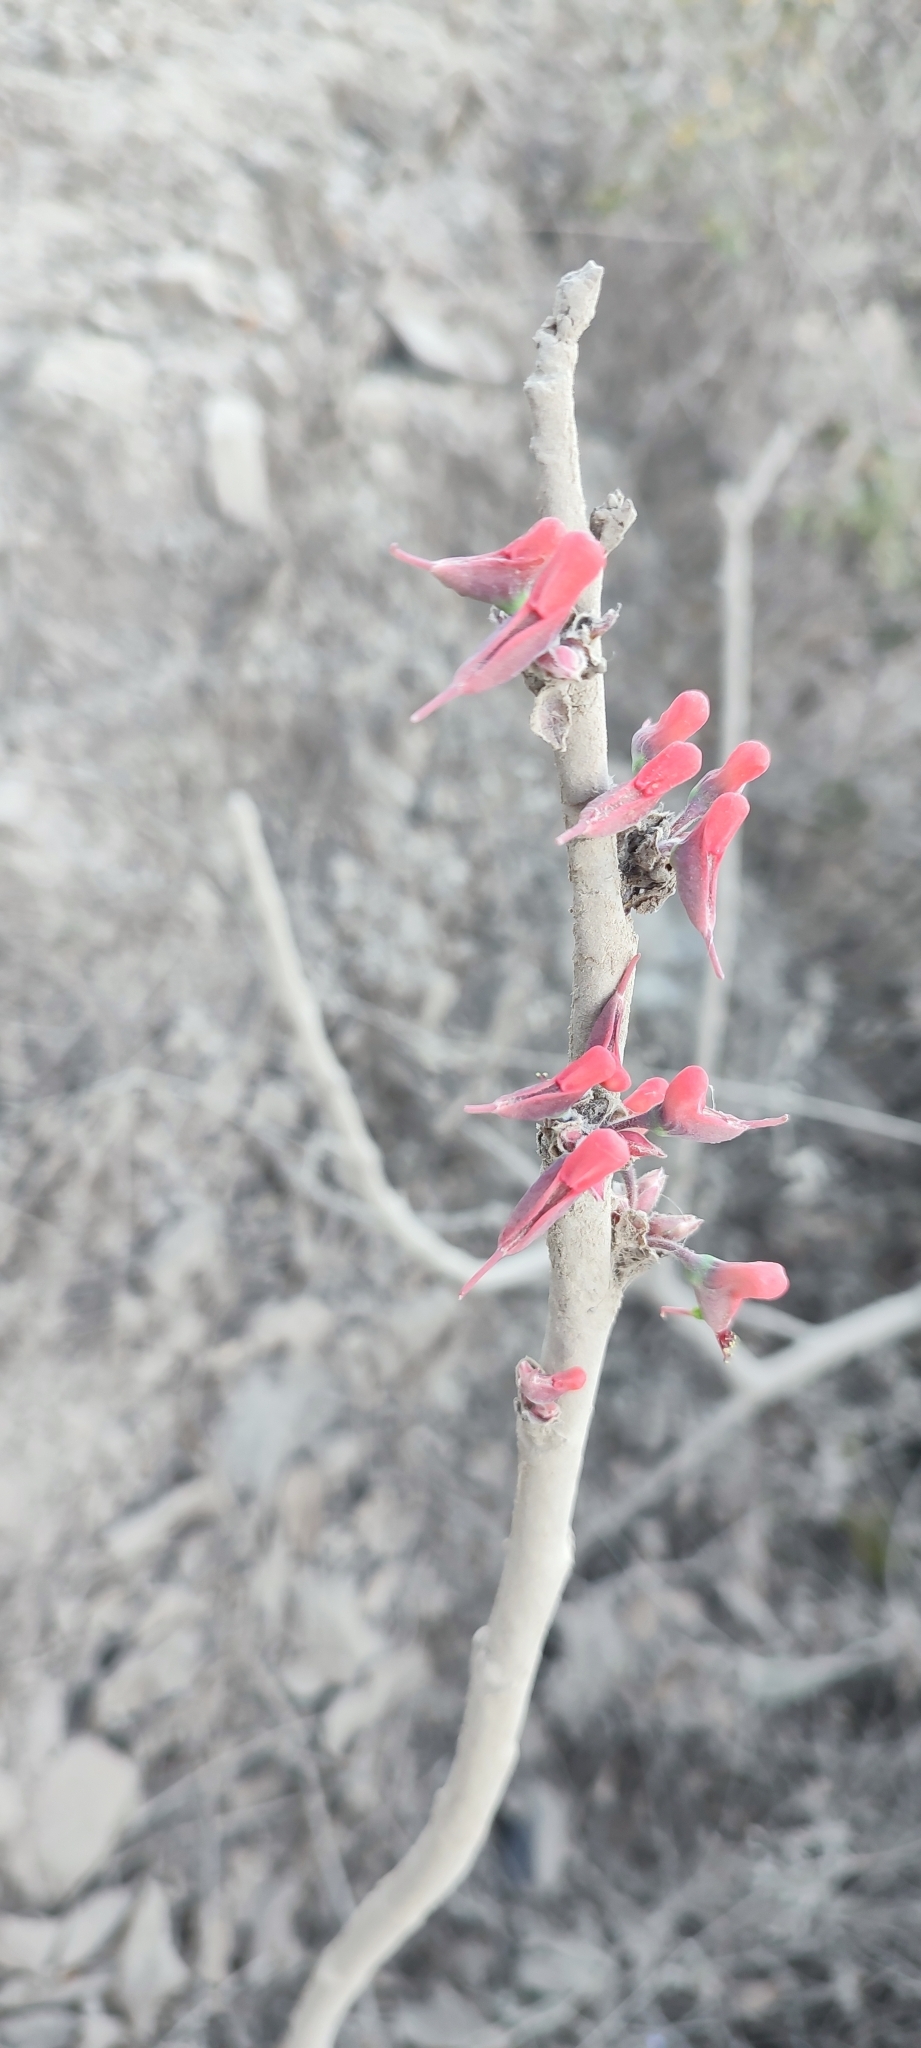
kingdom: Plantae
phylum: Tracheophyta
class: Magnoliopsida
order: Malpighiales
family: Euphorbiaceae
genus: Euphorbia
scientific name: Euphorbia calcarata
